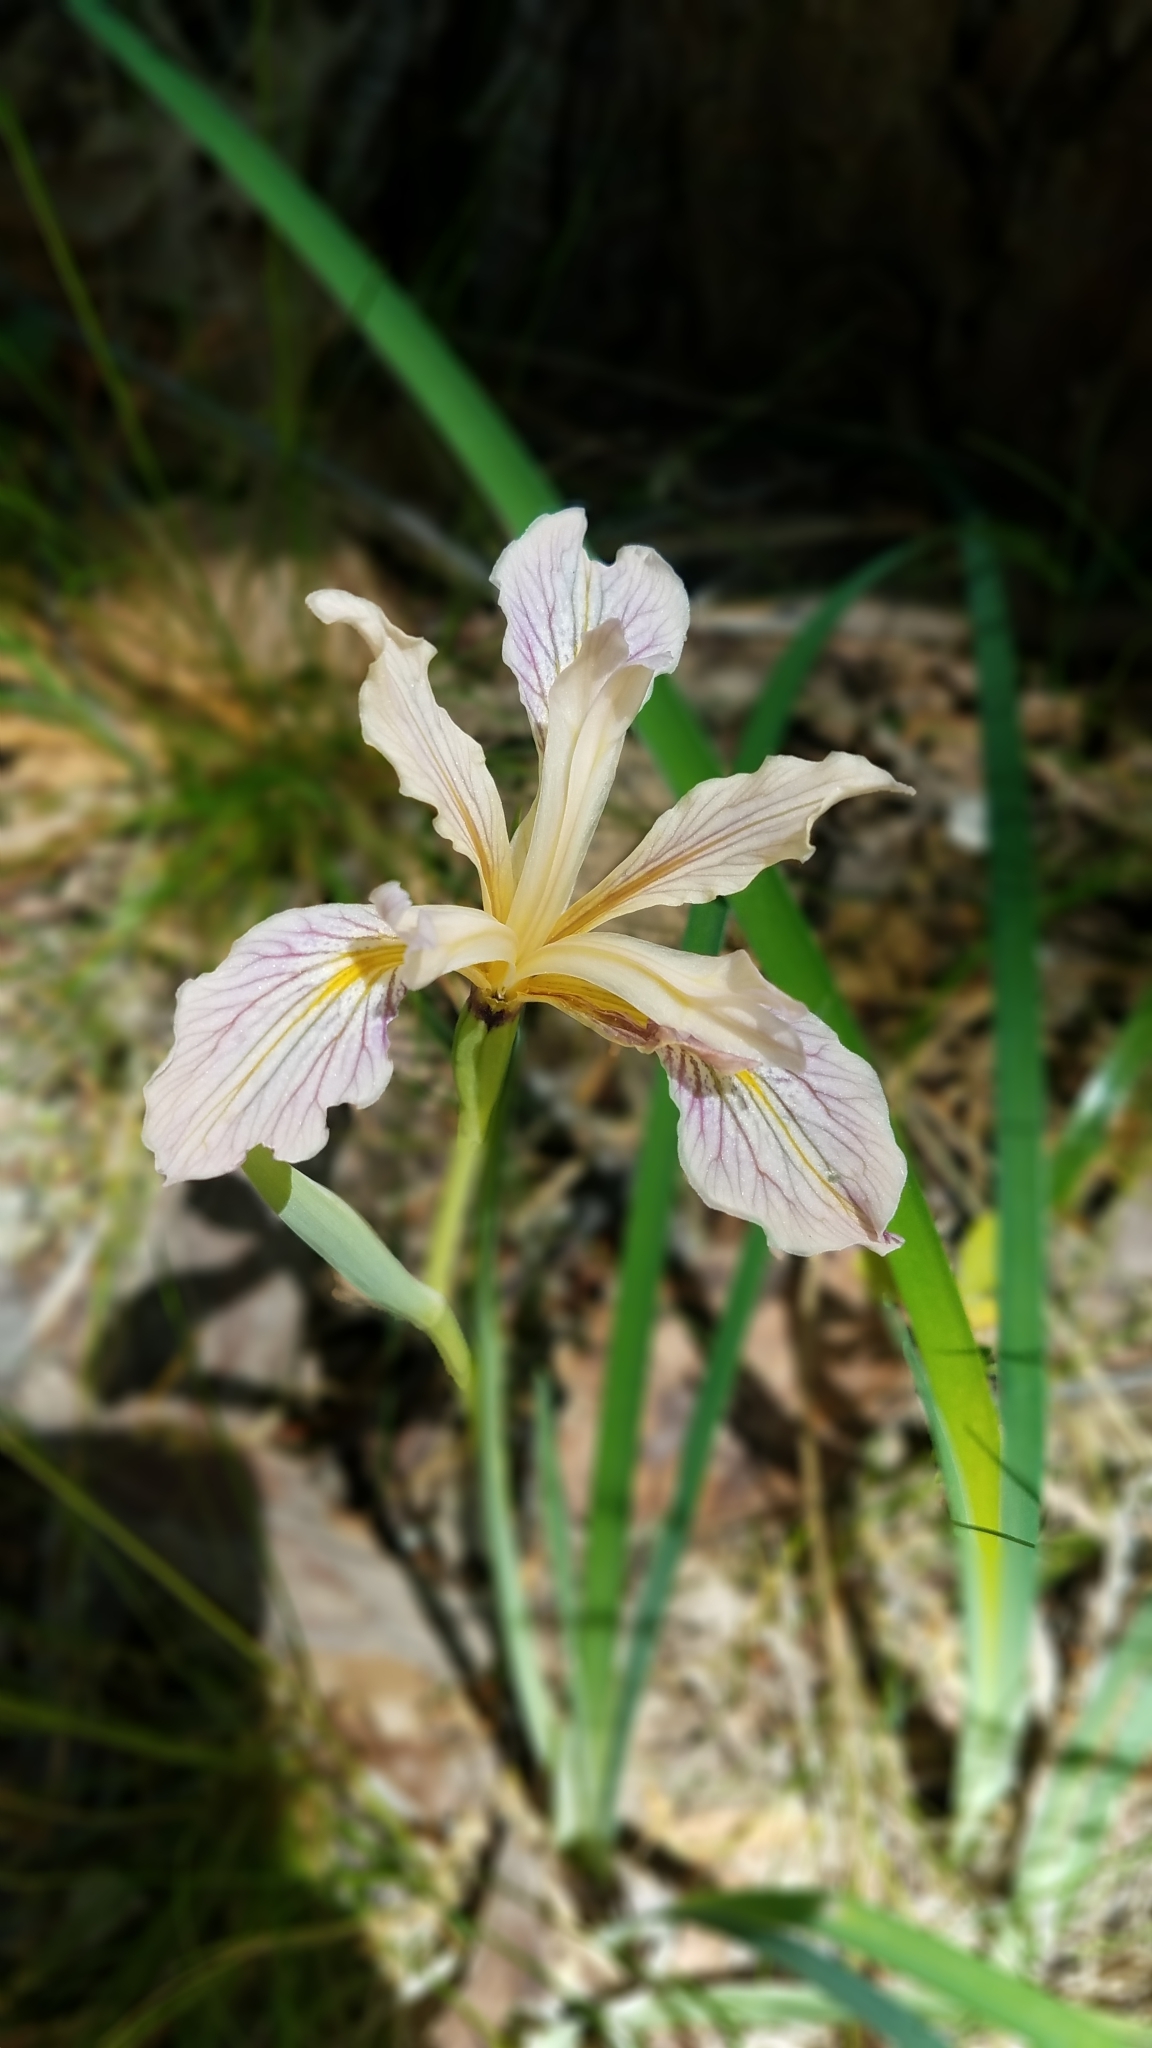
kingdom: Plantae
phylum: Tracheophyta
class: Liliopsida
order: Asparagales
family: Iridaceae
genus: Iris
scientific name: Iris hartwegii
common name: Sierra iris
